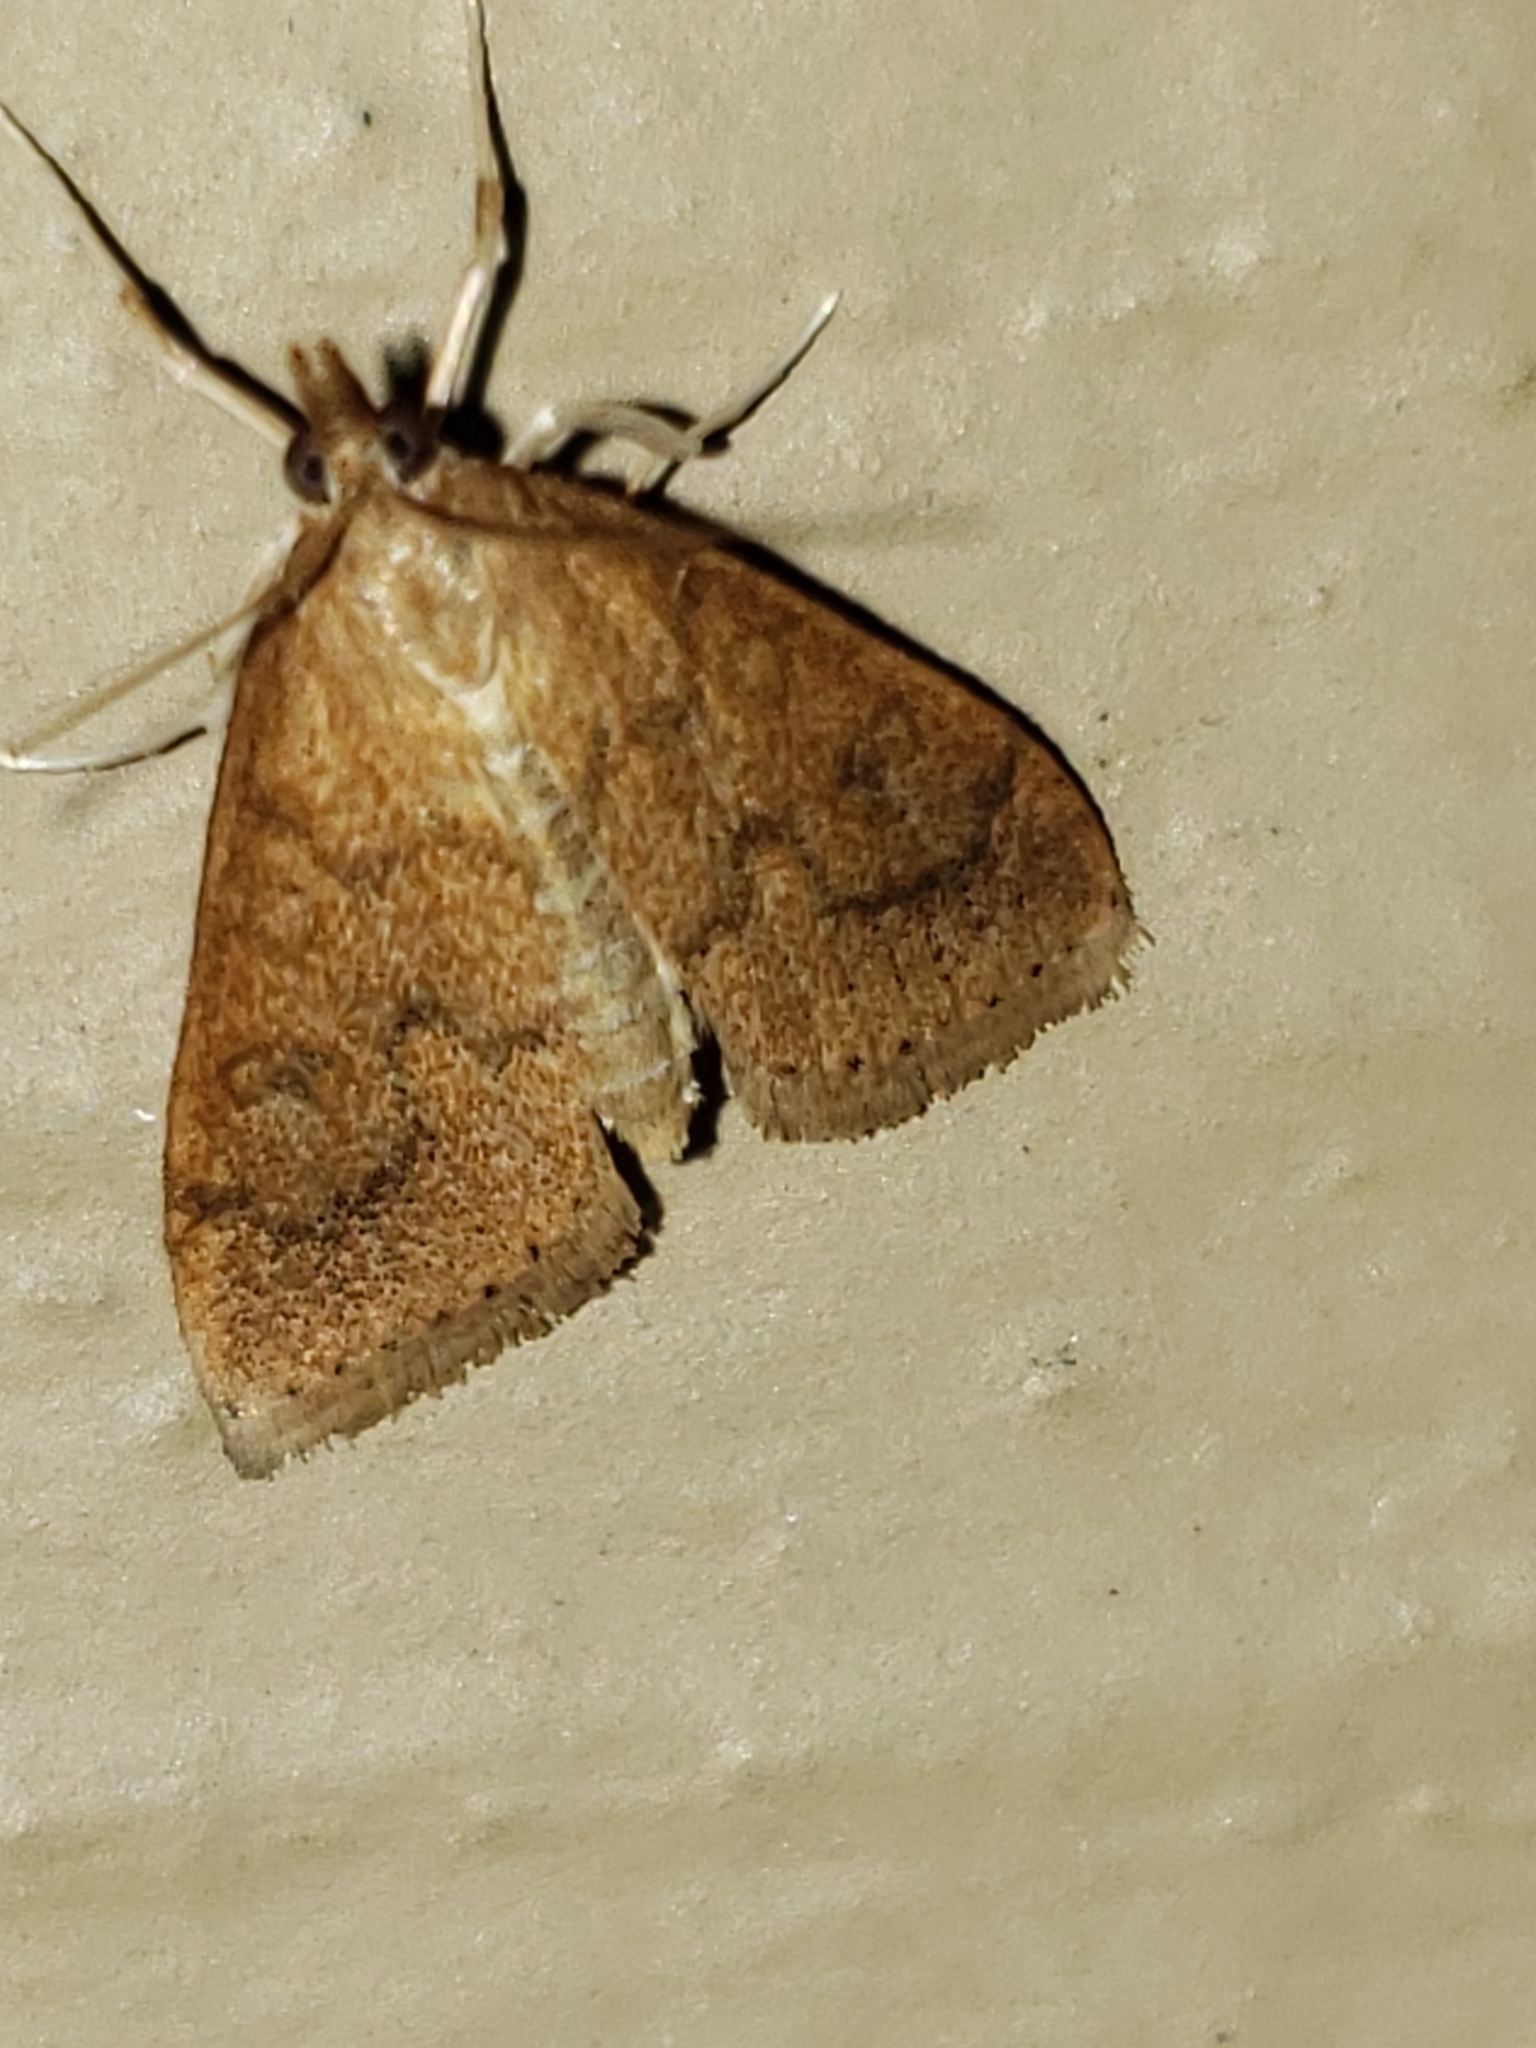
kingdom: Animalia
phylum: Arthropoda
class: Insecta
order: Lepidoptera
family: Crambidae
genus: Udea
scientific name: Udea rubigalis
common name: Celery leaftier moth
